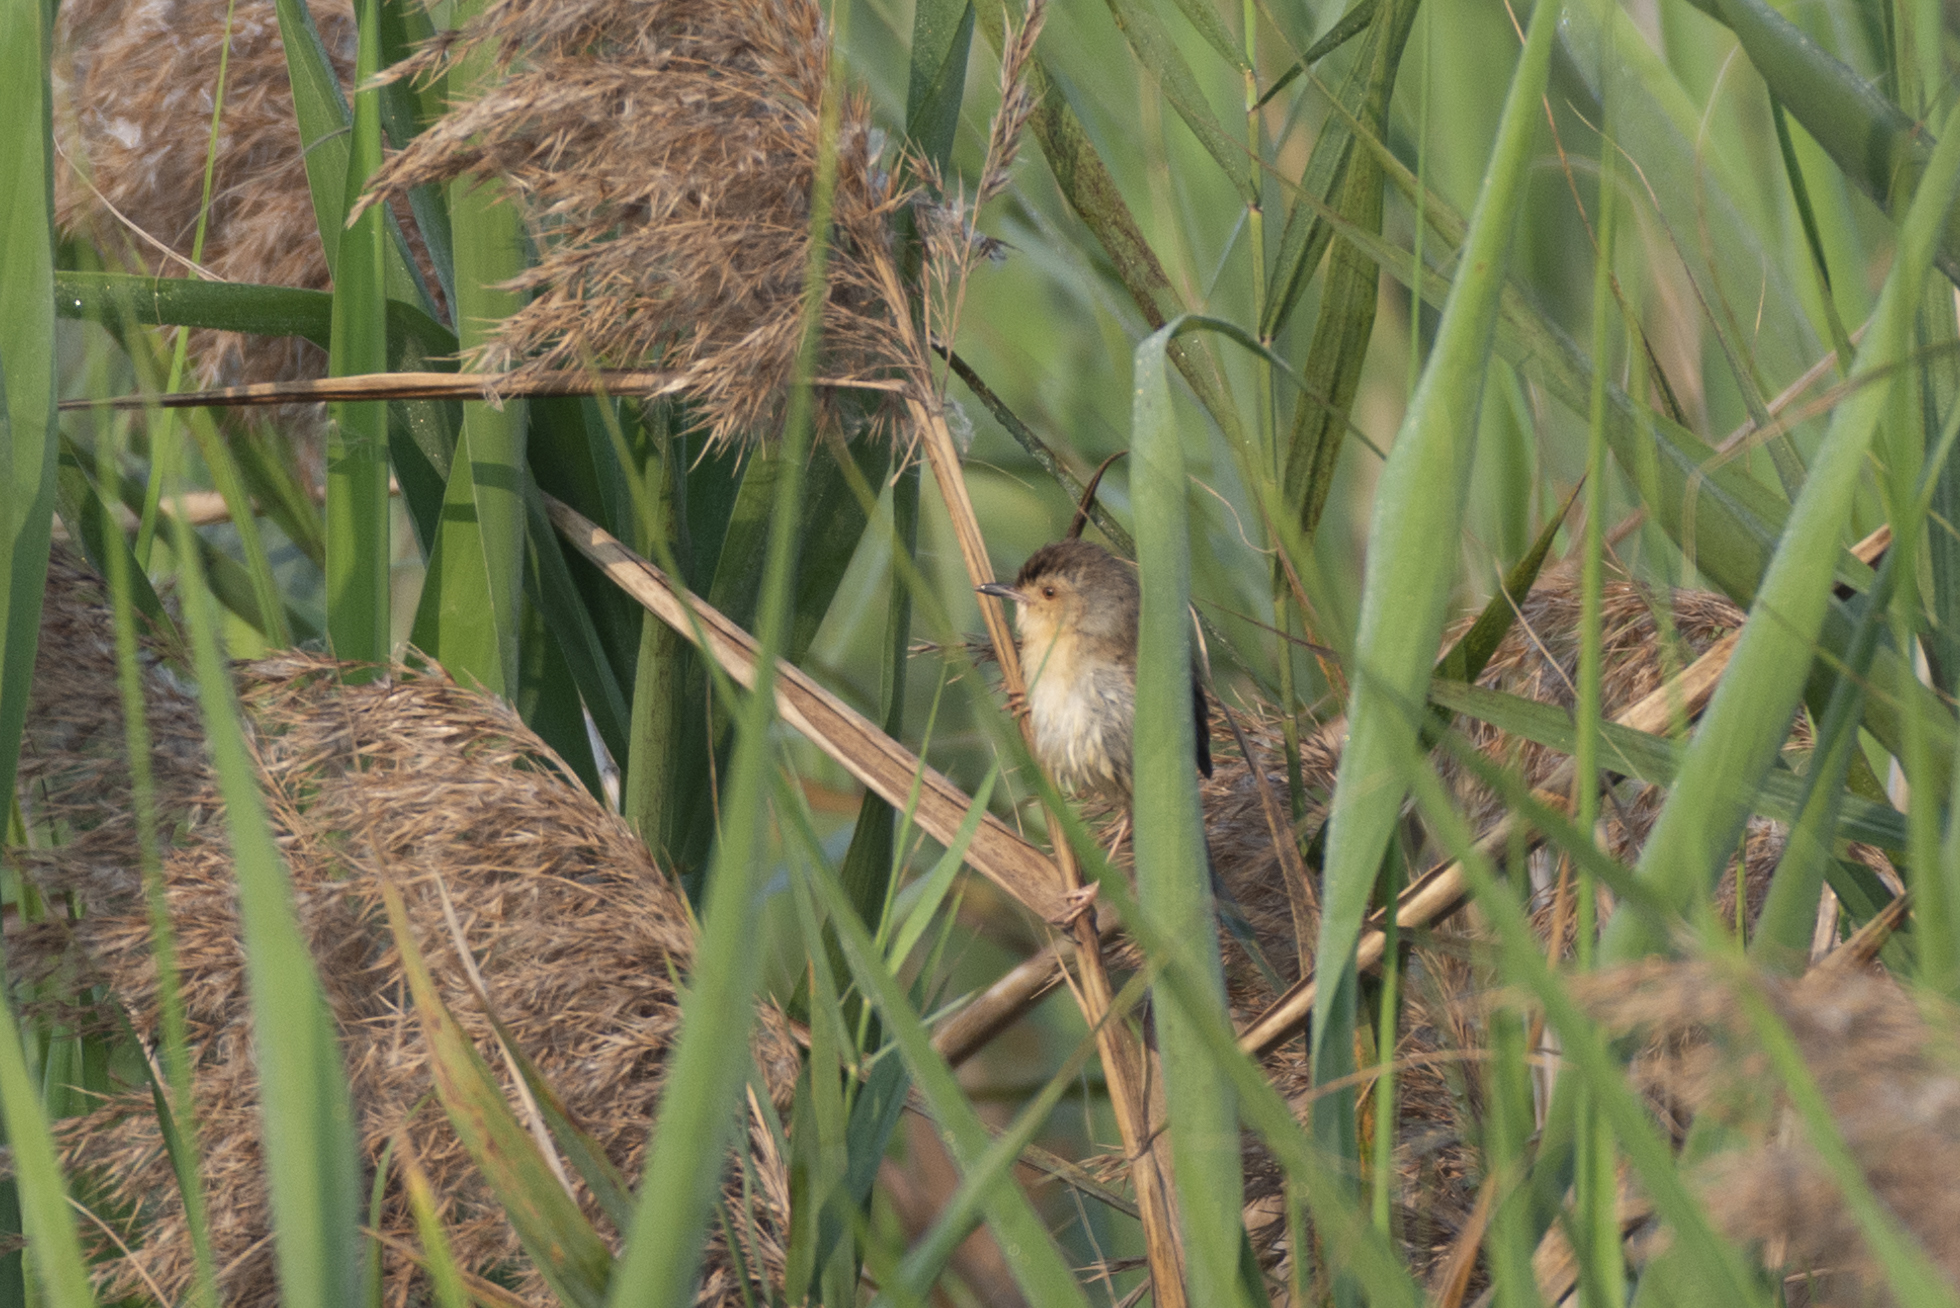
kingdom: Animalia
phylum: Chordata
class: Aves
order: Passeriformes
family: Cisticolidae
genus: Prinia
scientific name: Prinia flaviventris
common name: Yellow-bellied prinia
